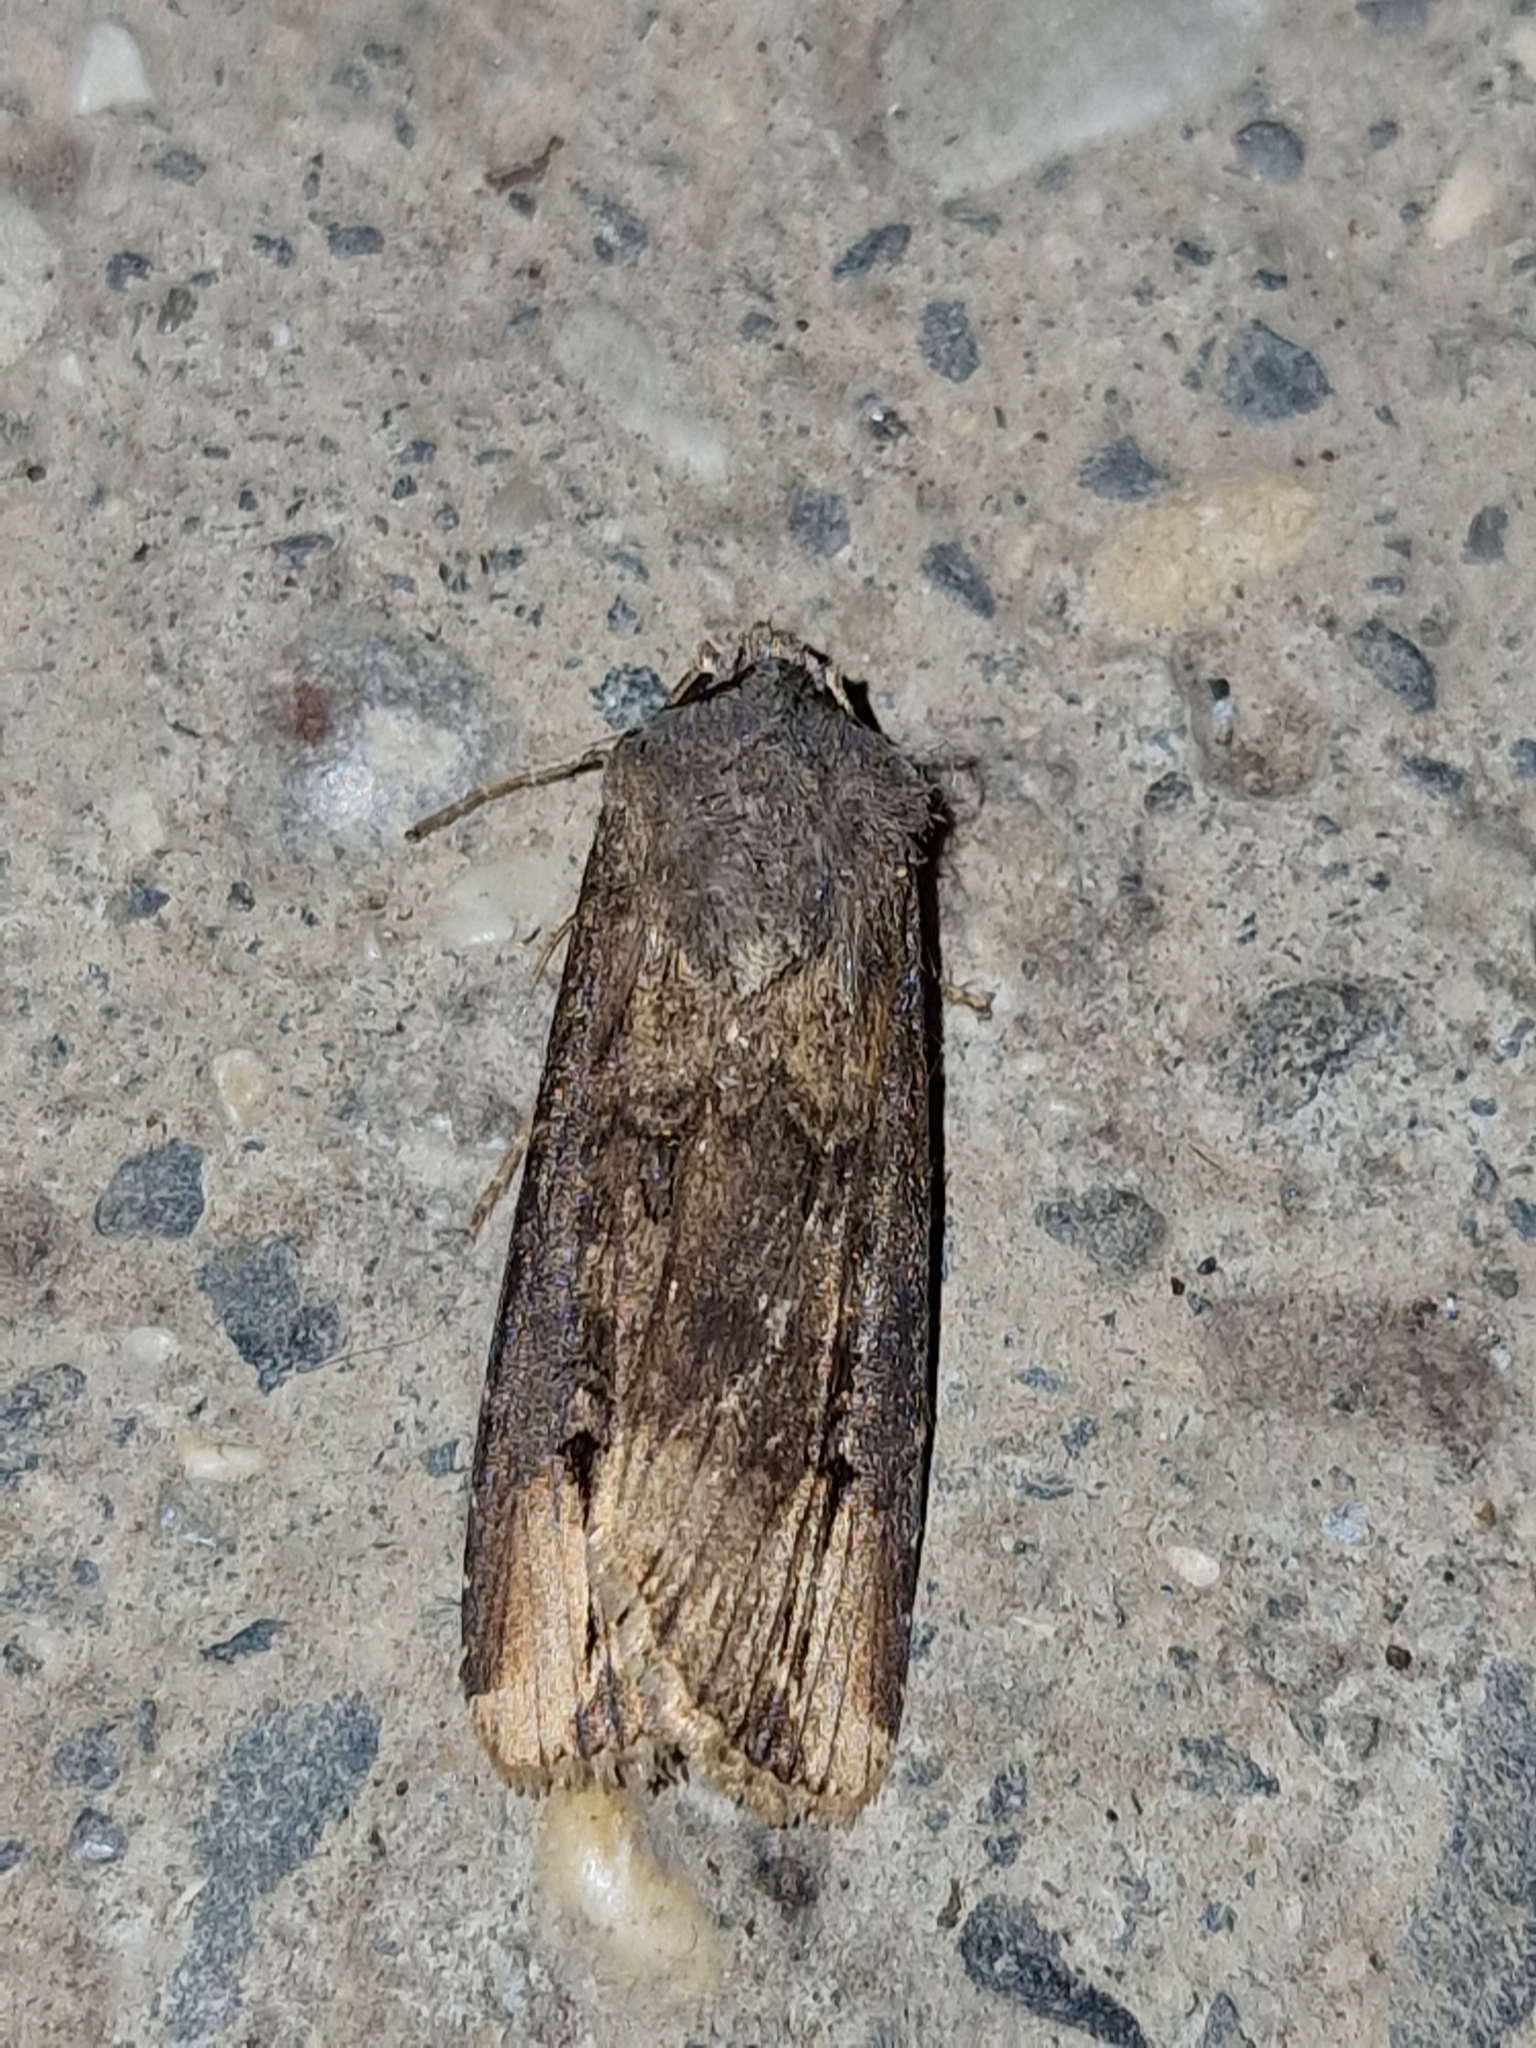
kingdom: Animalia
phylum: Arthropoda
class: Insecta
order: Lepidoptera
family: Noctuidae
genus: Agrotis
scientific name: Agrotis ipsilon
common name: Dark sword-grass
